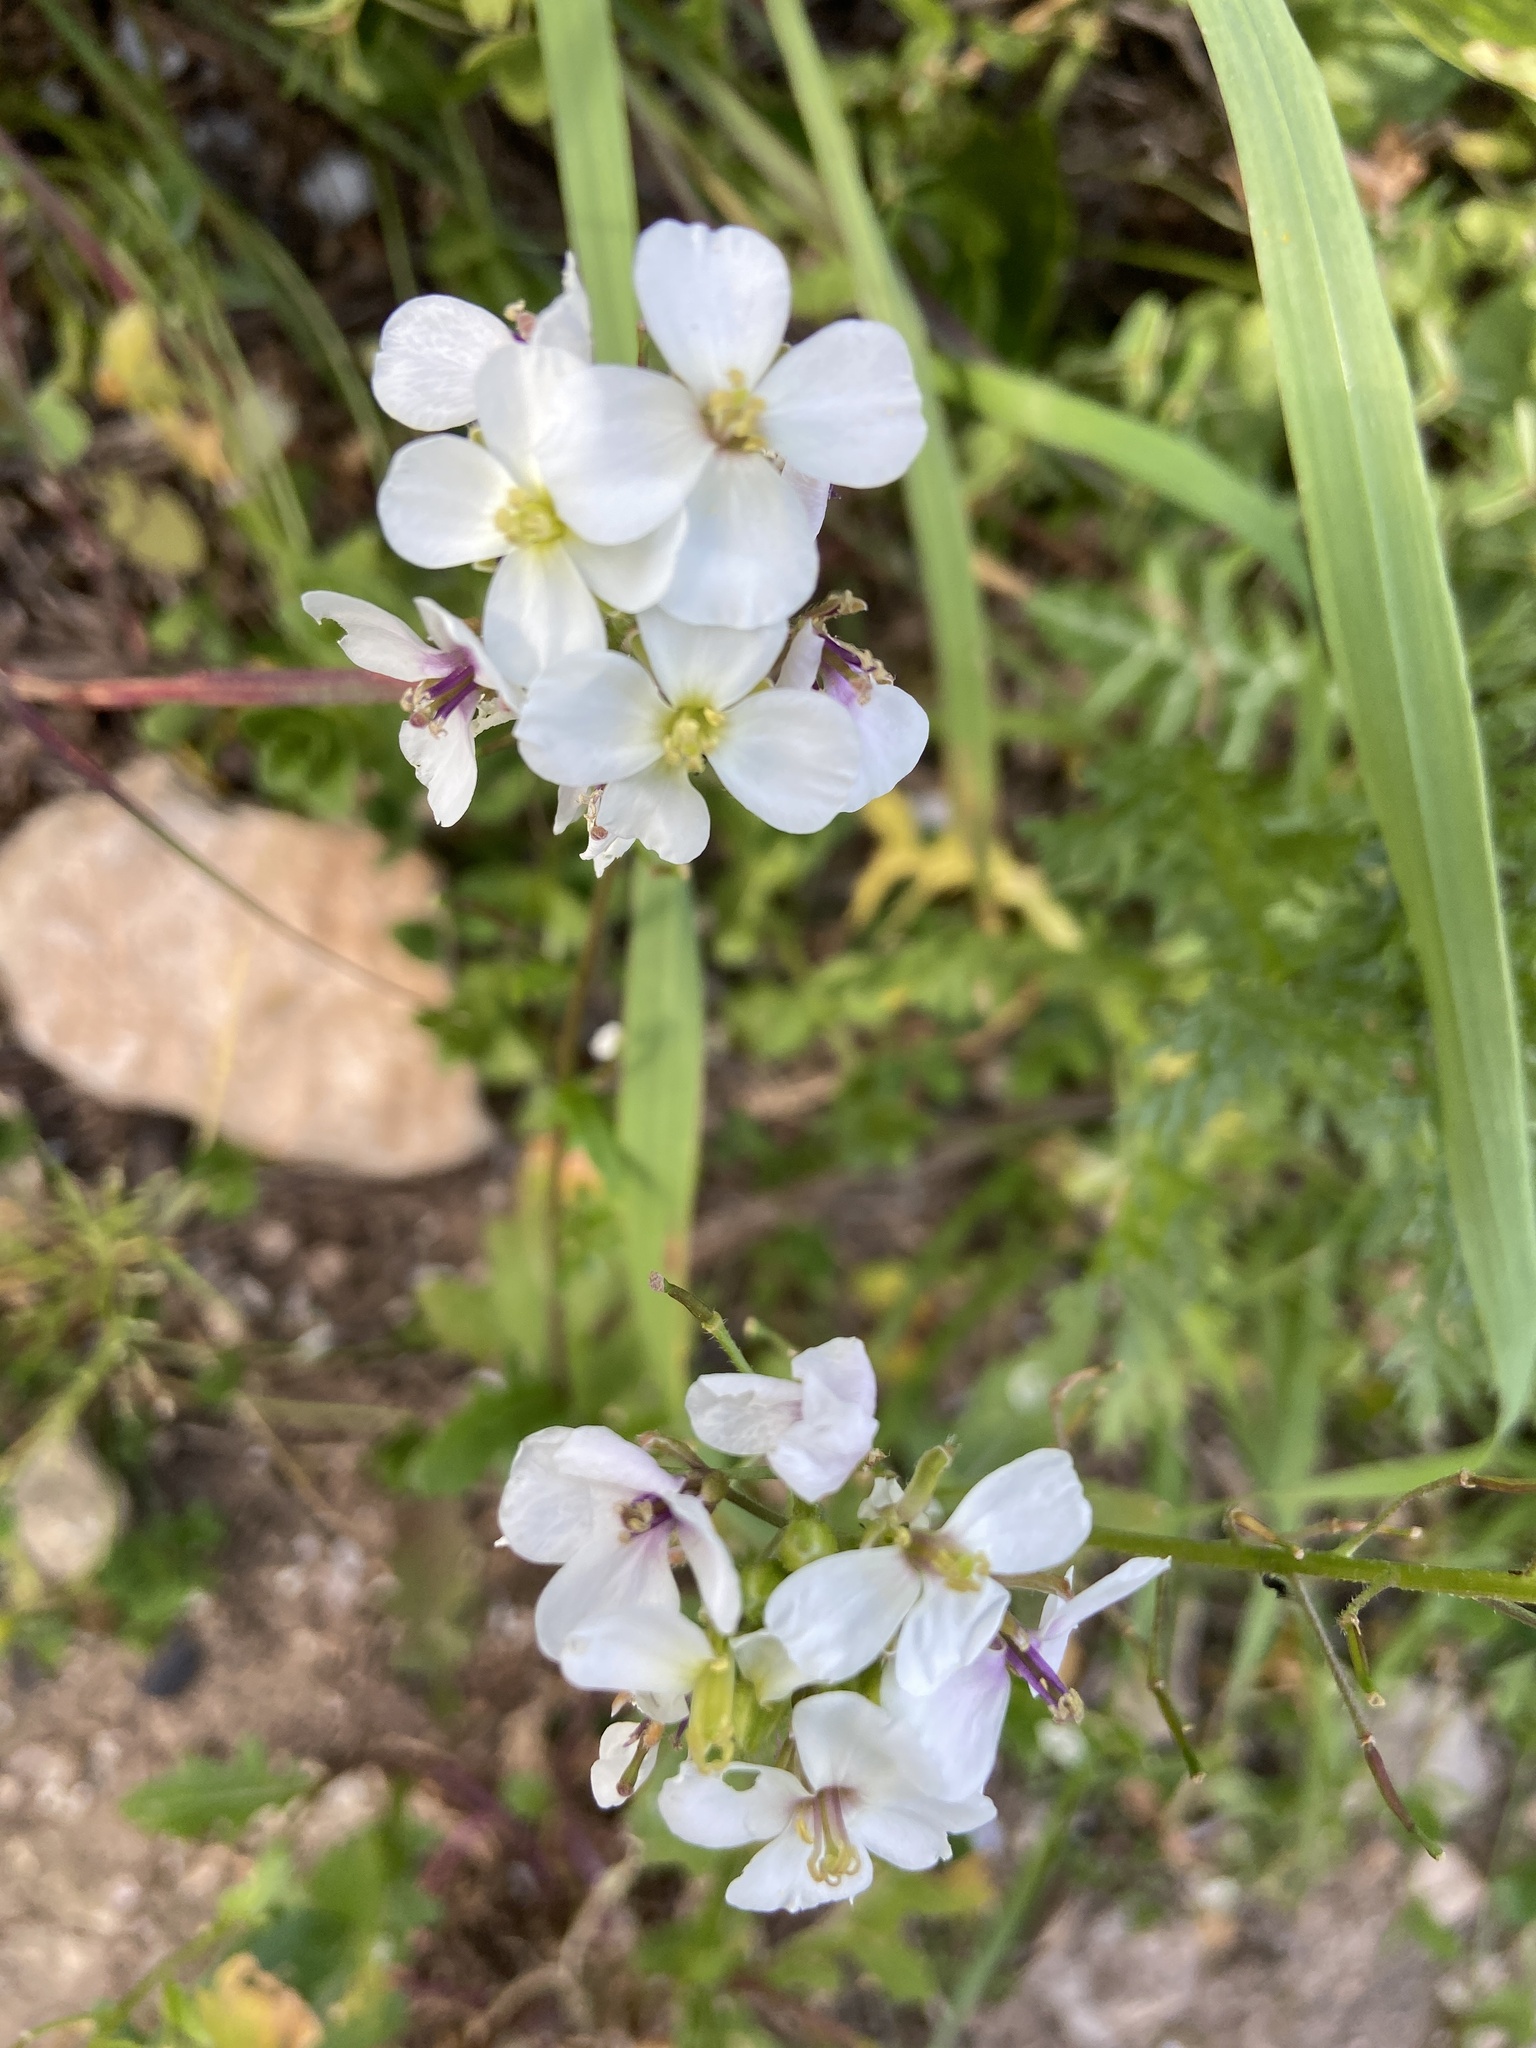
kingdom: Plantae
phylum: Tracheophyta
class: Magnoliopsida
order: Brassicales
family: Brassicaceae
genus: Diplotaxis
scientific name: Diplotaxis erucoides
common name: White rocket
